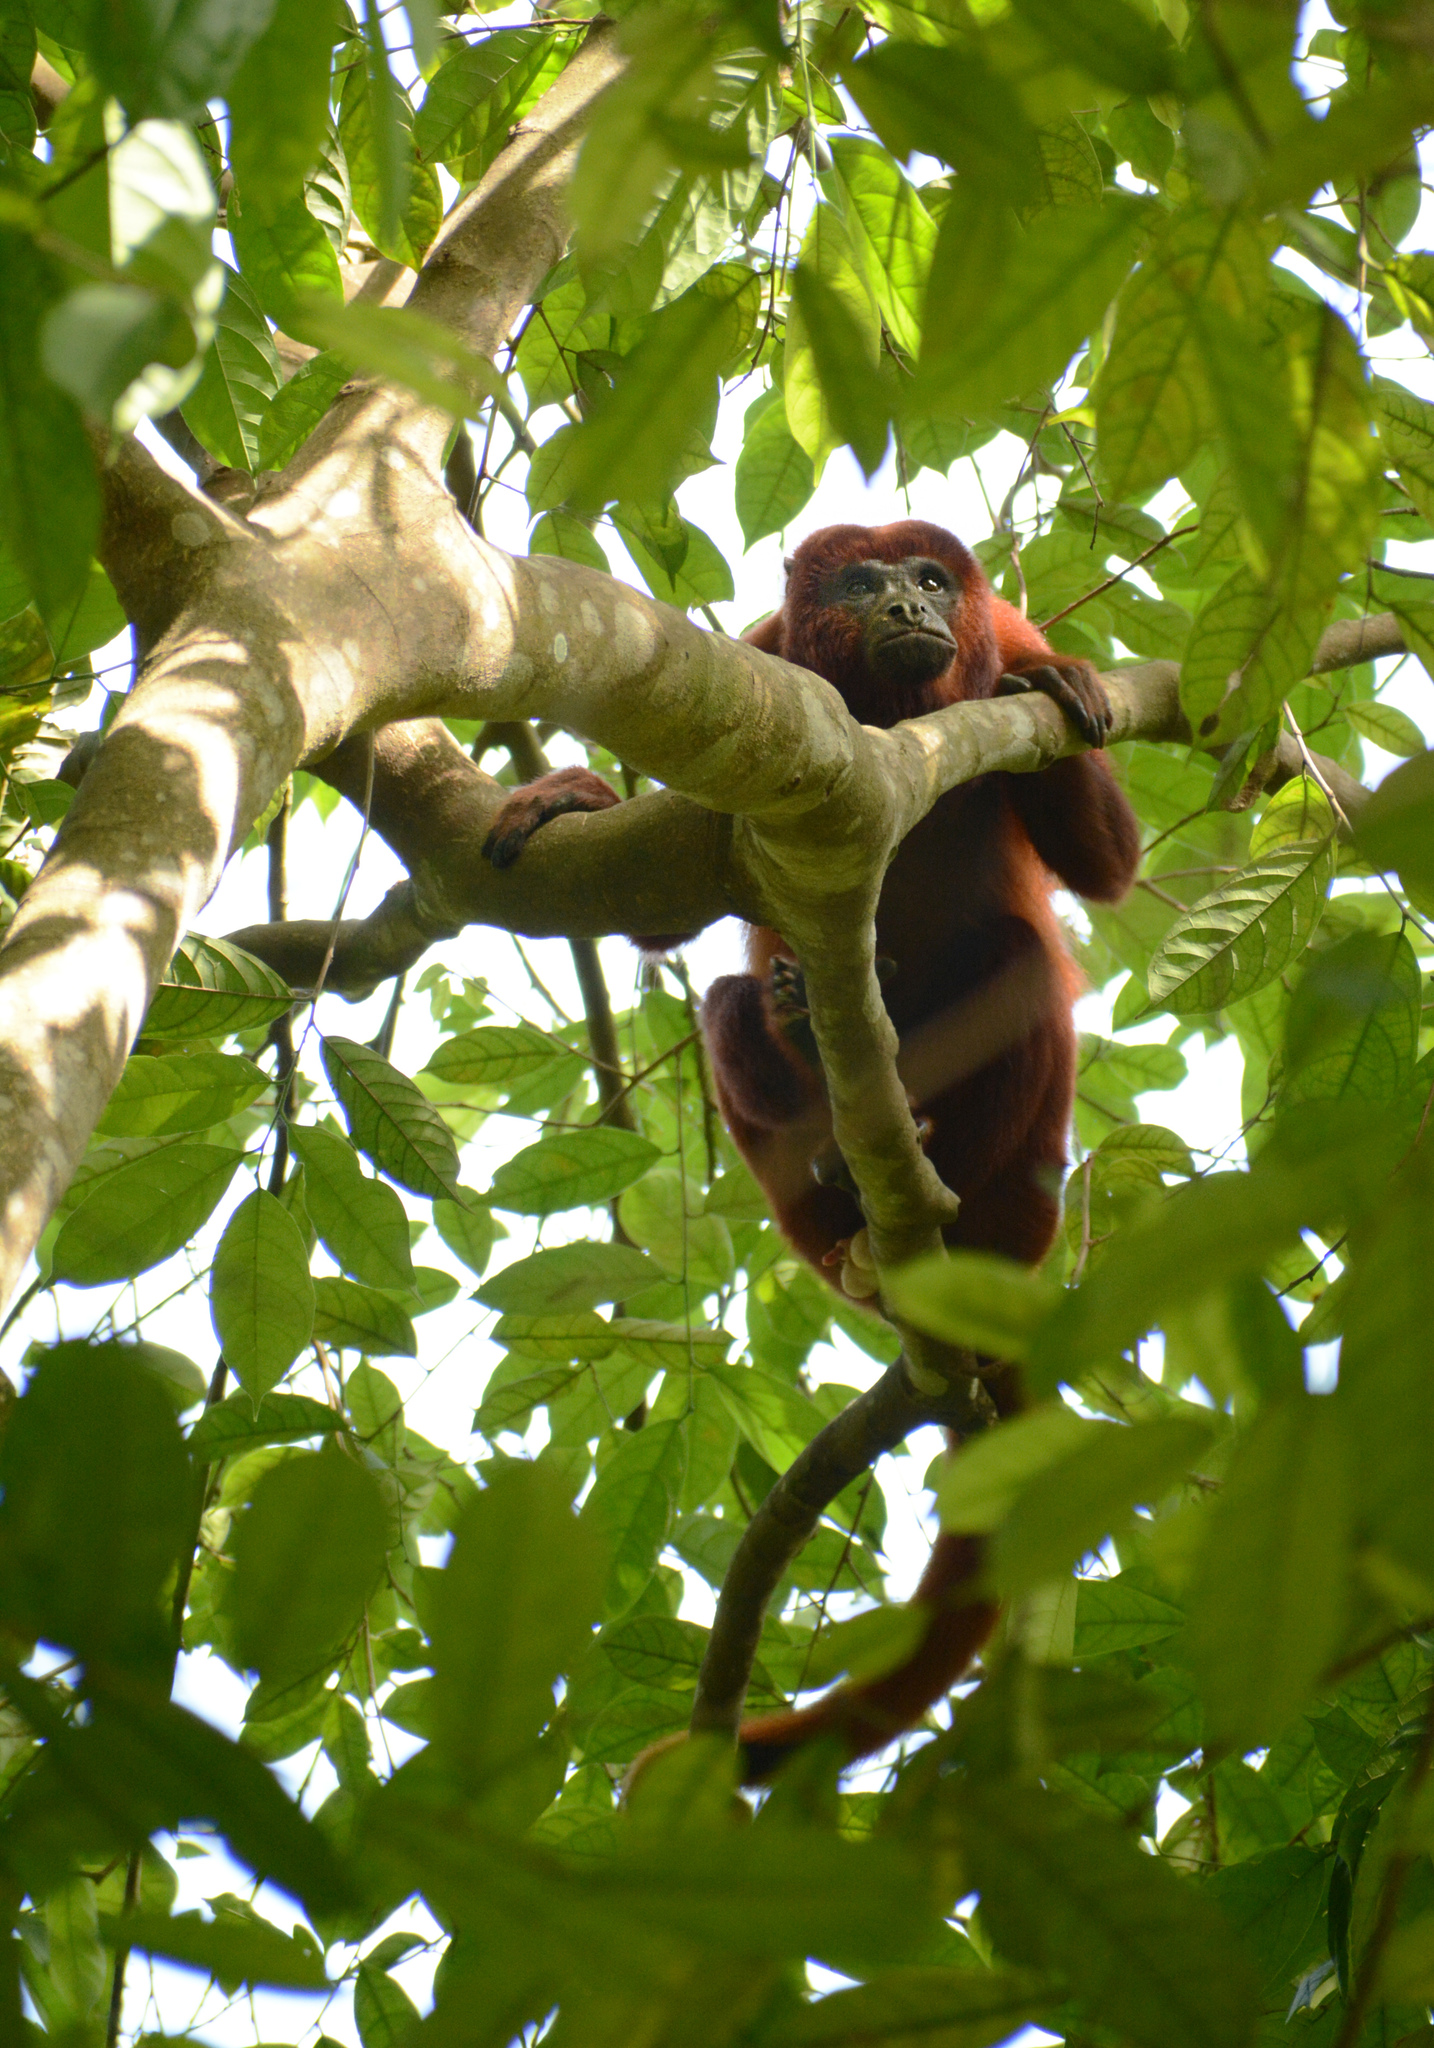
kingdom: Animalia
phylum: Chordata
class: Mammalia
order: Primates
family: Atelidae
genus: Alouatta
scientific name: Alouatta seniculus
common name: Venezuelan red howler
